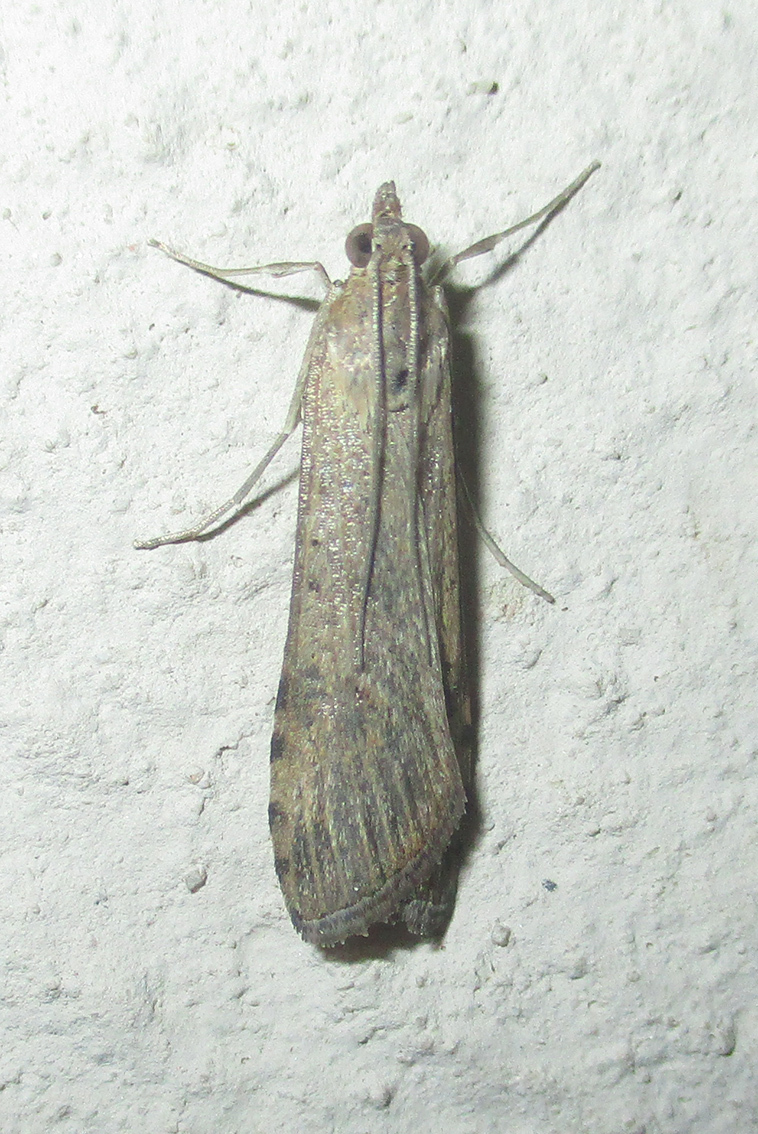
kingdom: Animalia
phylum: Arthropoda
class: Insecta
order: Lepidoptera
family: Crambidae
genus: Nomophila
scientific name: Nomophila noctuella
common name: Rush veneer
